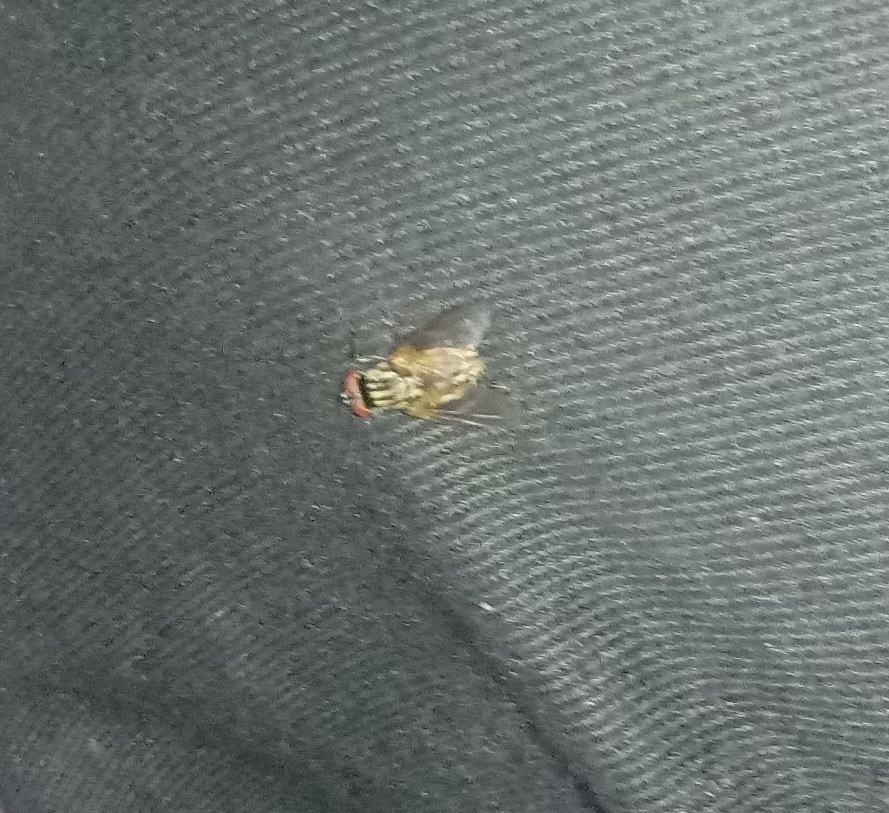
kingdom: Animalia
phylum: Arthropoda
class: Insecta
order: Diptera
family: Muscidae
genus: Musca
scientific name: Musca domestica
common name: House fly
